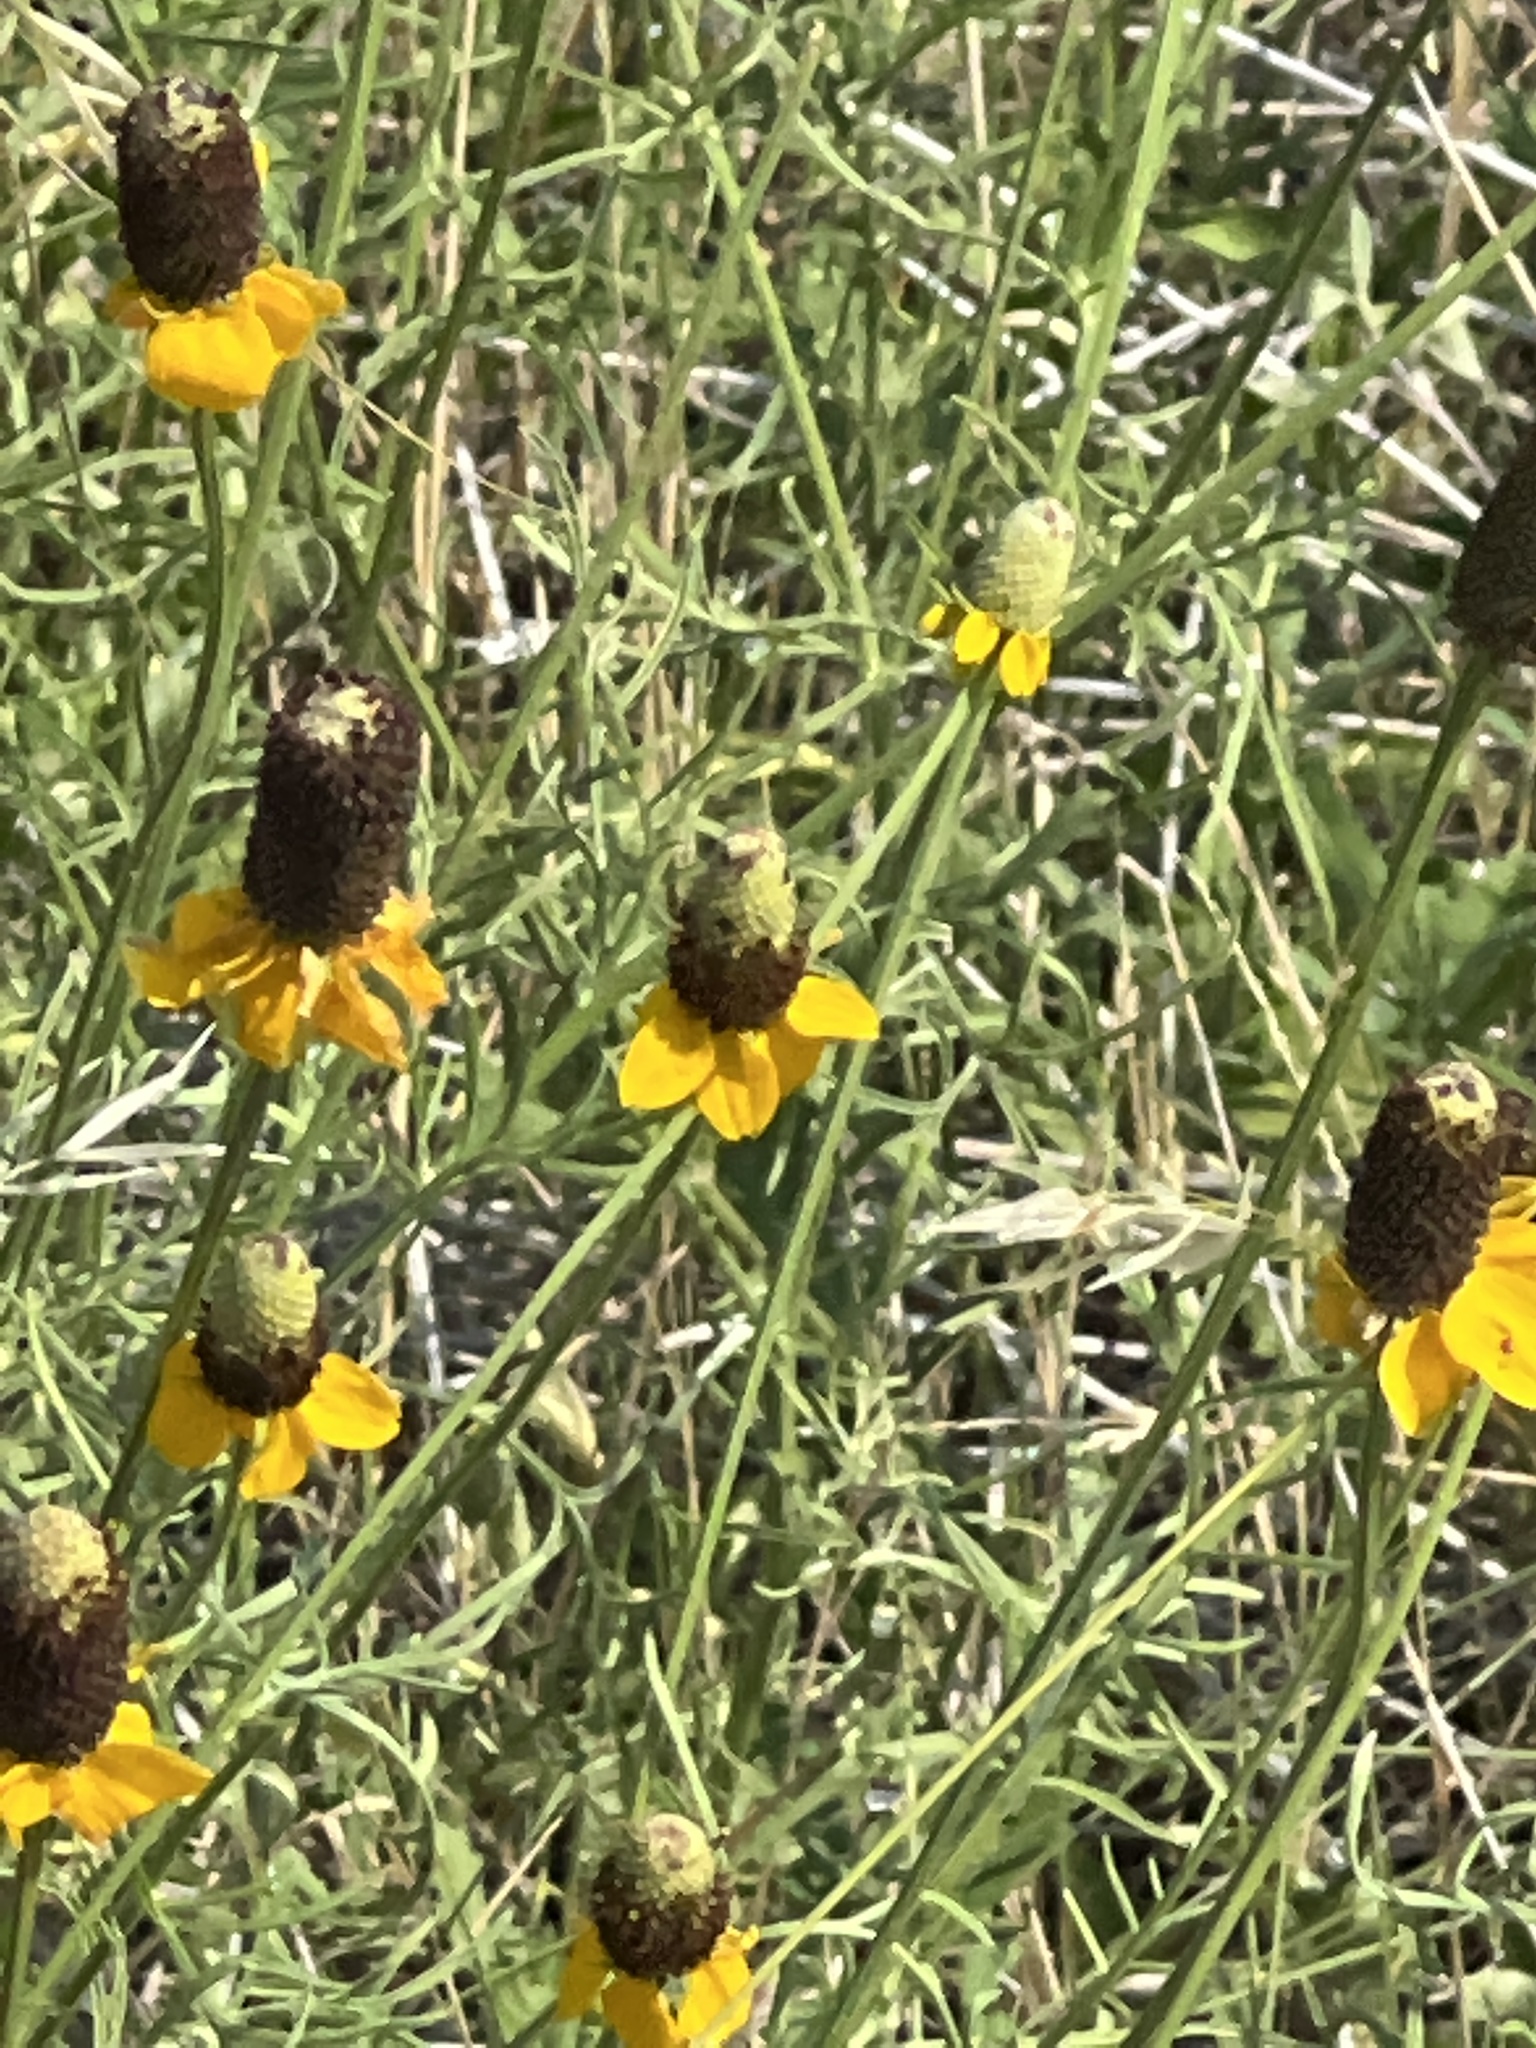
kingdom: Plantae
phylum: Tracheophyta
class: Magnoliopsida
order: Asterales
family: Asteraceae
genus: Ratibida
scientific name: Ratibida columnifera
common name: Prairie coneflower
